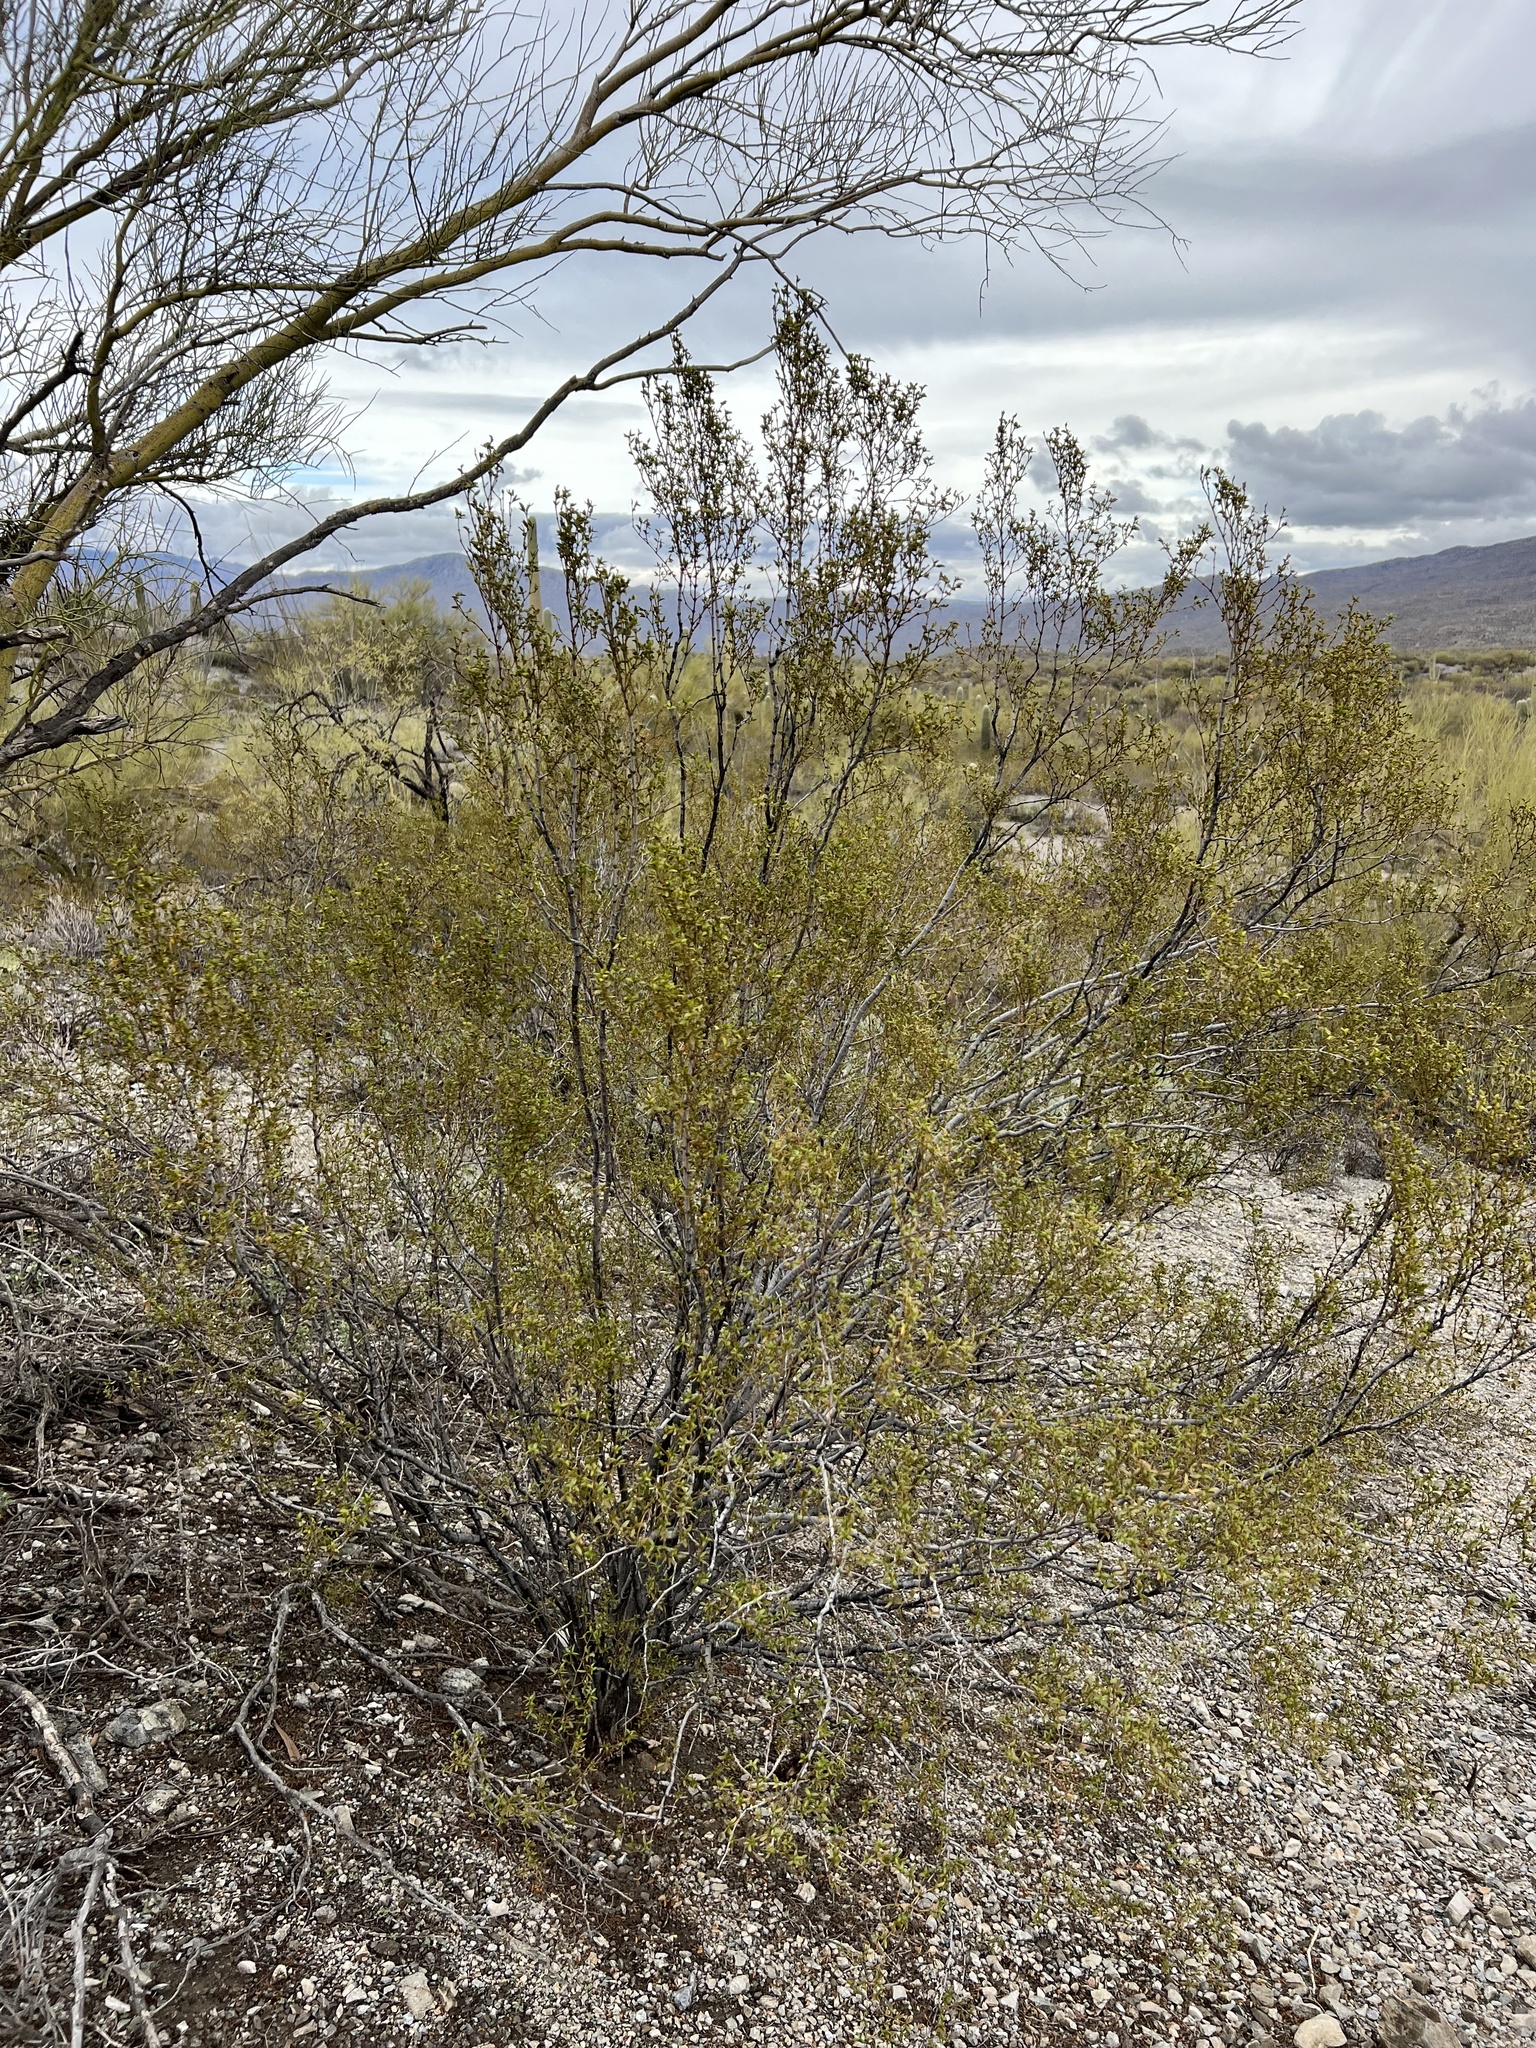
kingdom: Plantae
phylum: Tracheophyta
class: Magnoliopsida
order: Zygophyllales
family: Zygophyllaceae
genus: Larrea
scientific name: Larrea tridentata
